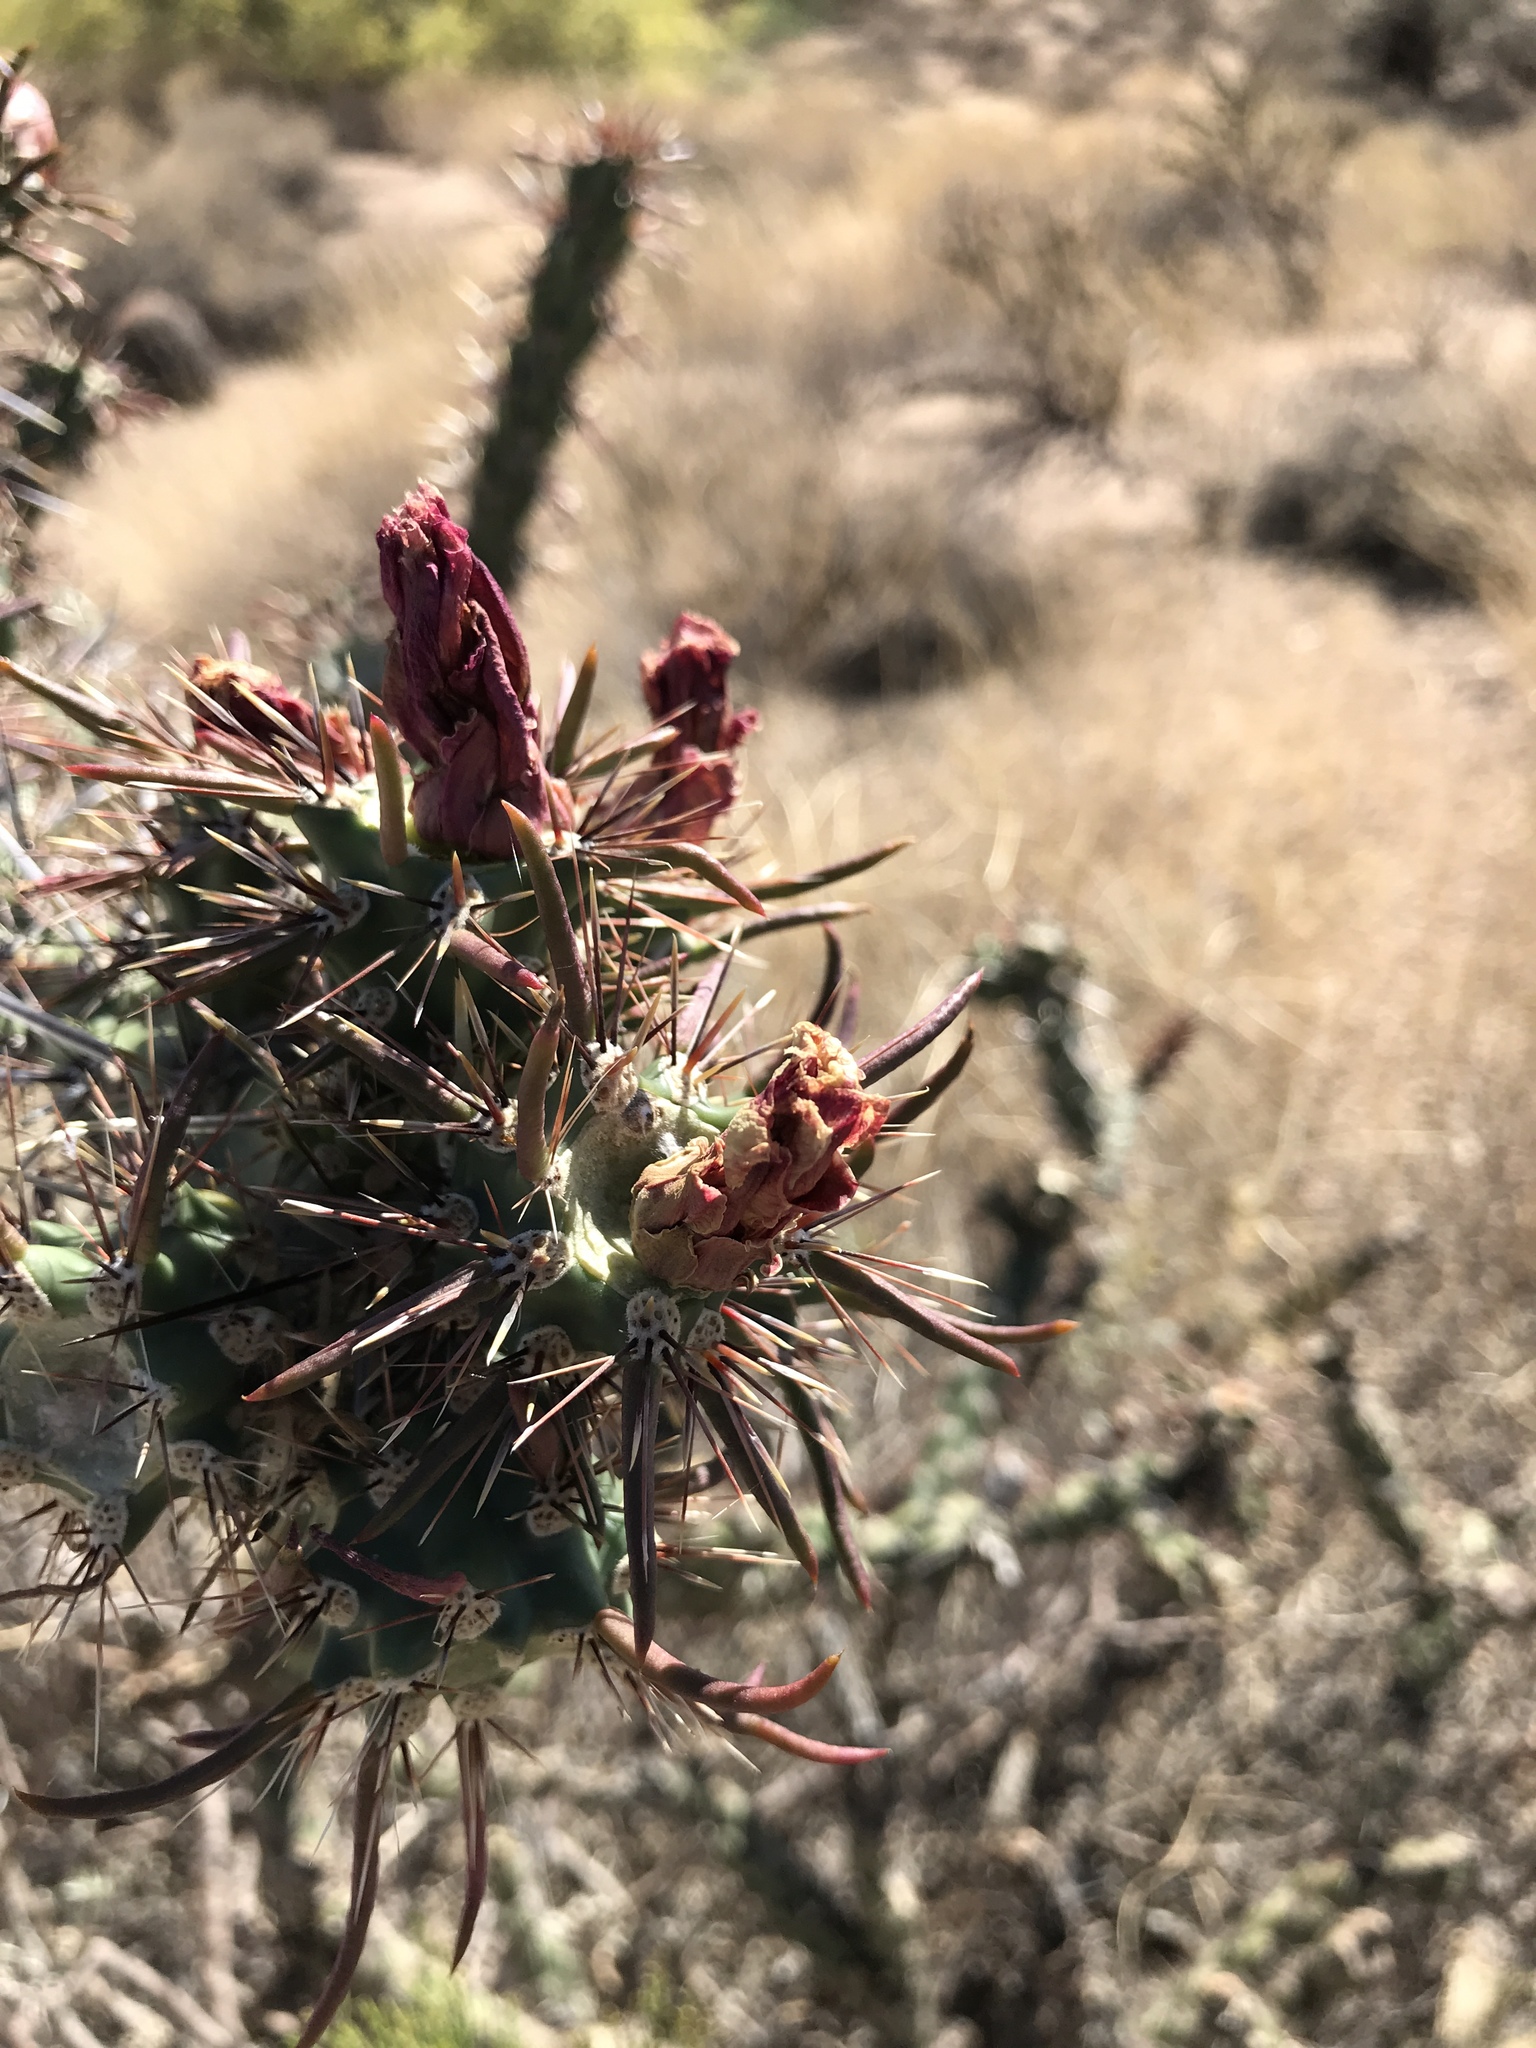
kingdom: Plantae
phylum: Tracheophyta
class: Magnoliopsida
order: Caryophyllales
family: Cactaceae
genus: Cylindropuntia
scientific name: Cylindropuntia acanthocarpa
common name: Buckhorn cholla
